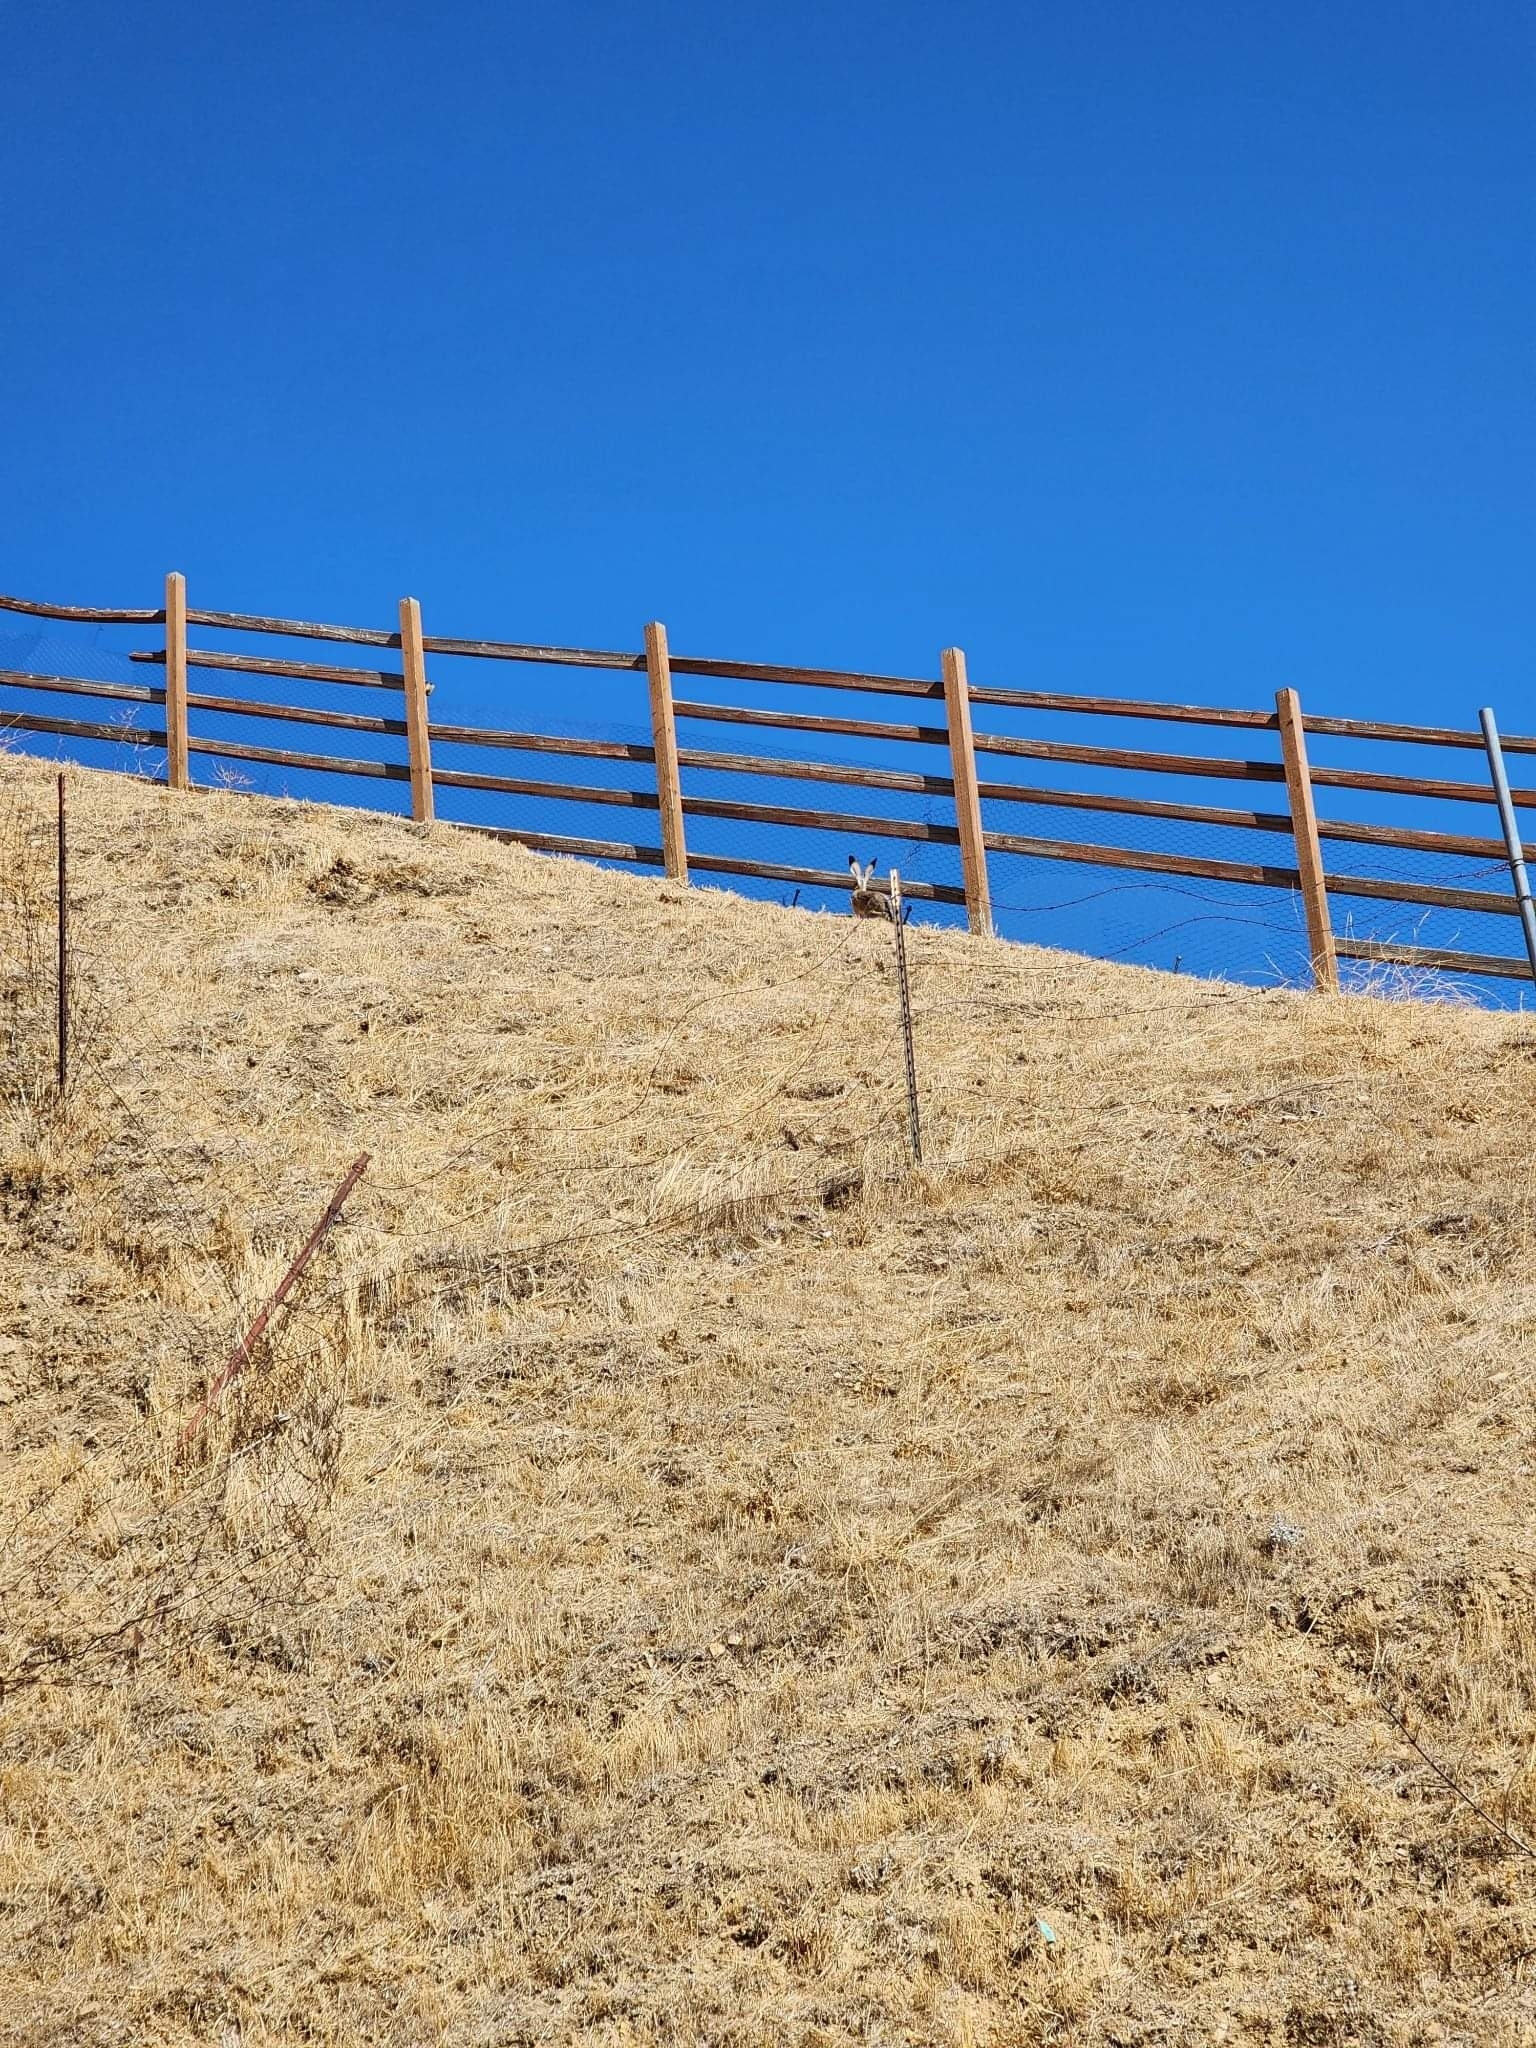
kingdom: Animalia
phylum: Chordata
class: Mammalia
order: Lagomorpha
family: Leporidae
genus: Lepus
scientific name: Lepus californicus
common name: Black-tailed jackrabbit
